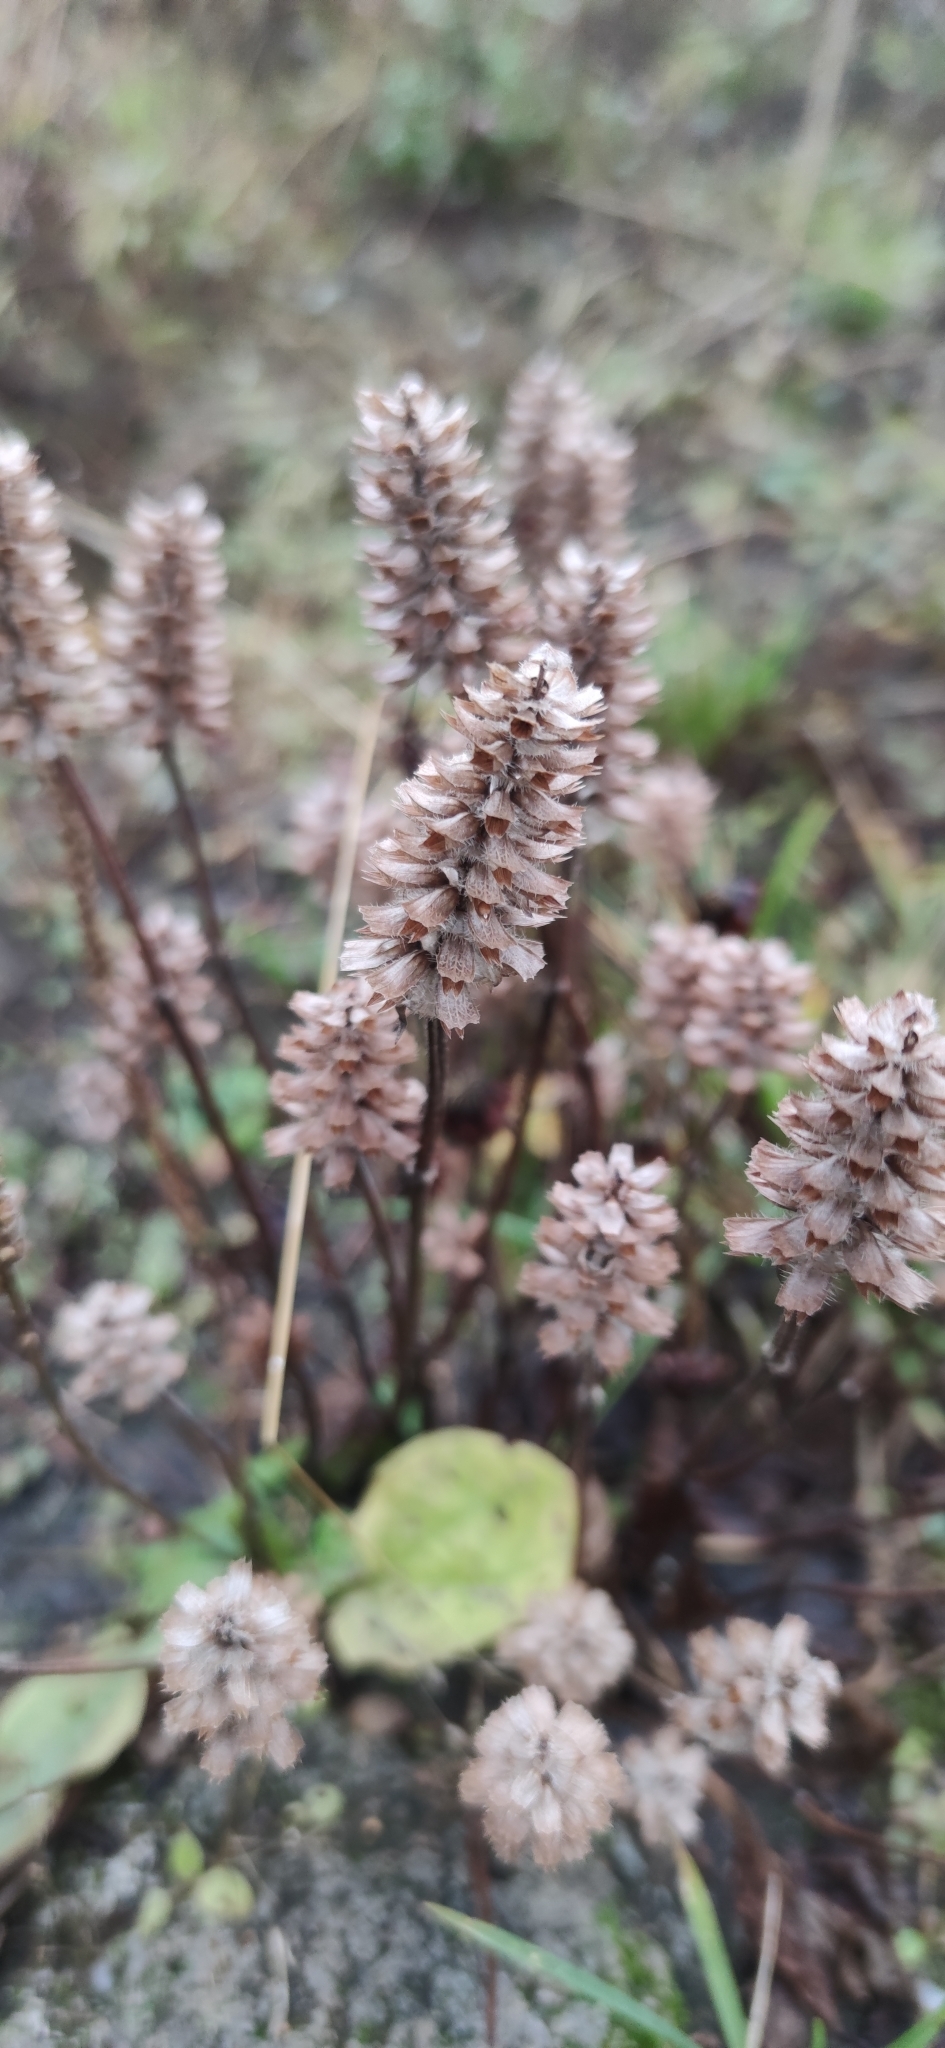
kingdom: Plantae
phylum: Tracheophyta
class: Magnoliopsida
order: Lamiales
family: Lamiaceae
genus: Prunella
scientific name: Prunella vulgaris
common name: Heal-all
